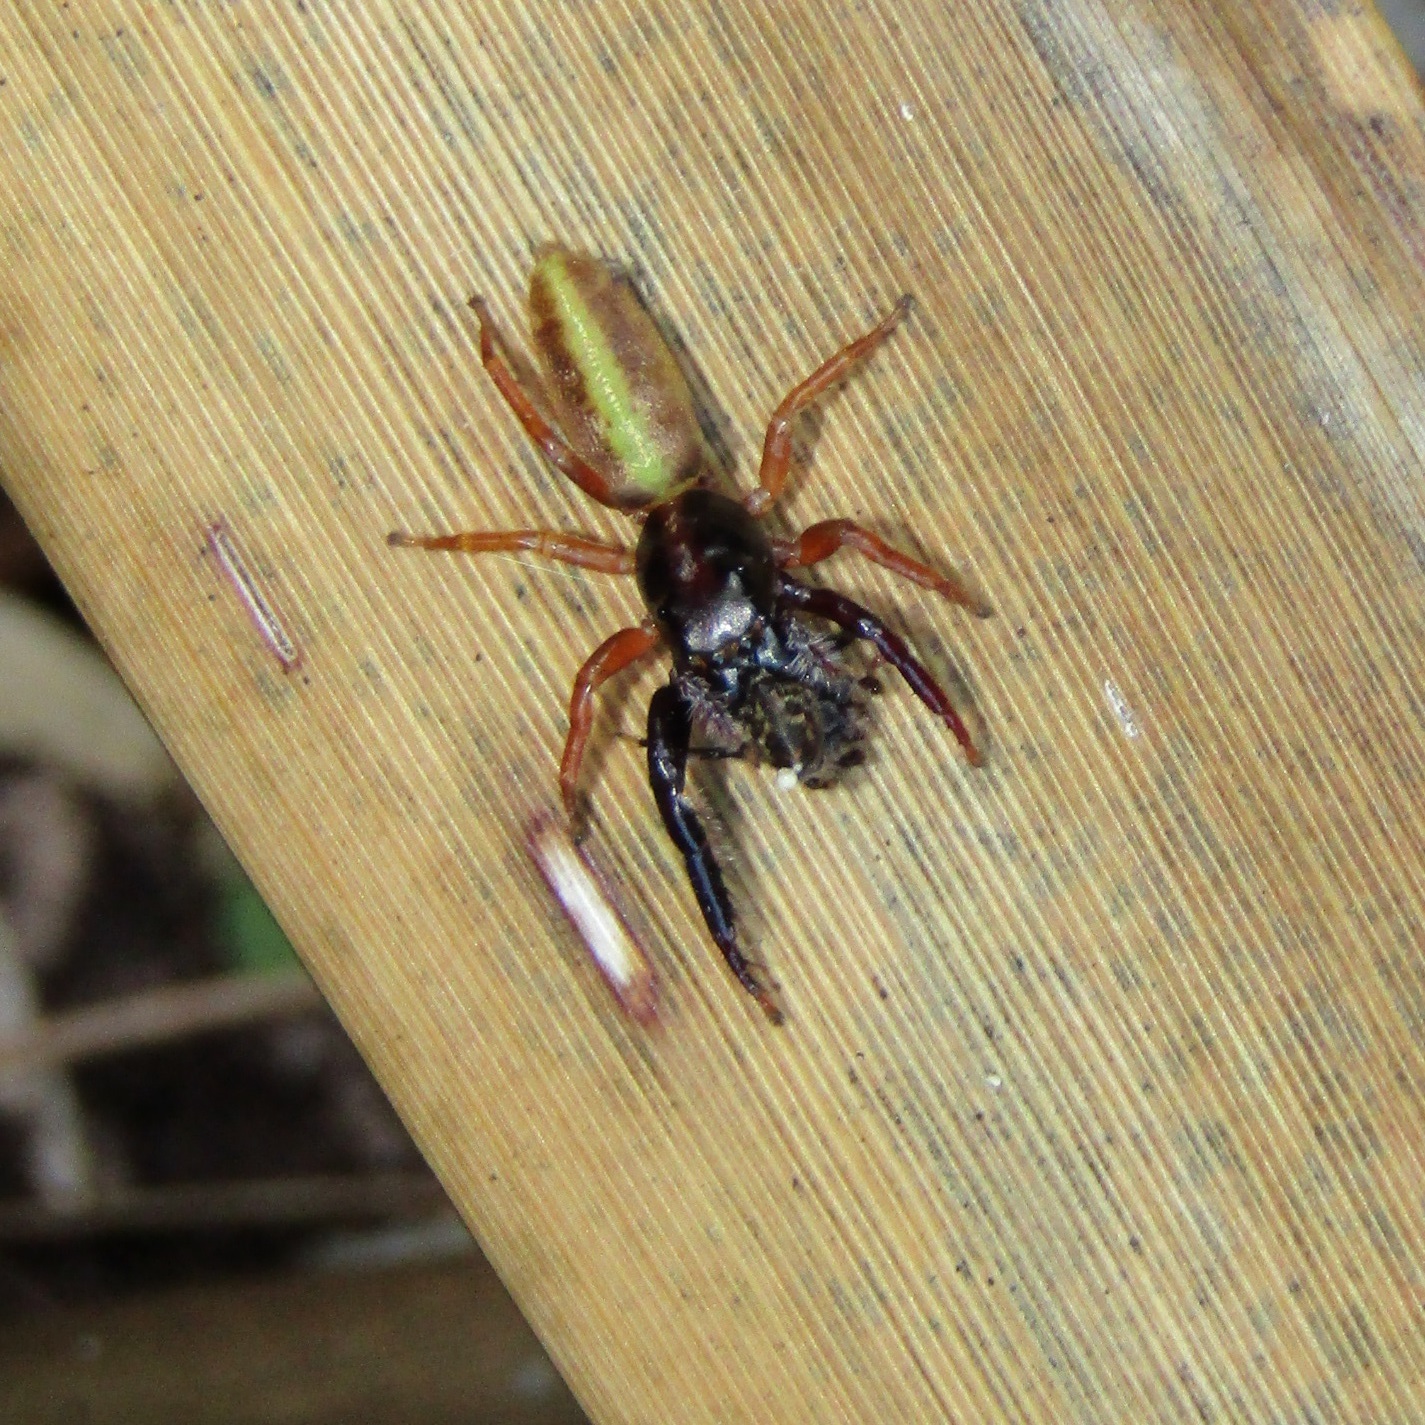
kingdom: Animalia
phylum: Arthropoda
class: Arachnida
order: Araneae
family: Salticidae
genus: Trite
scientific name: Trite planiceps
